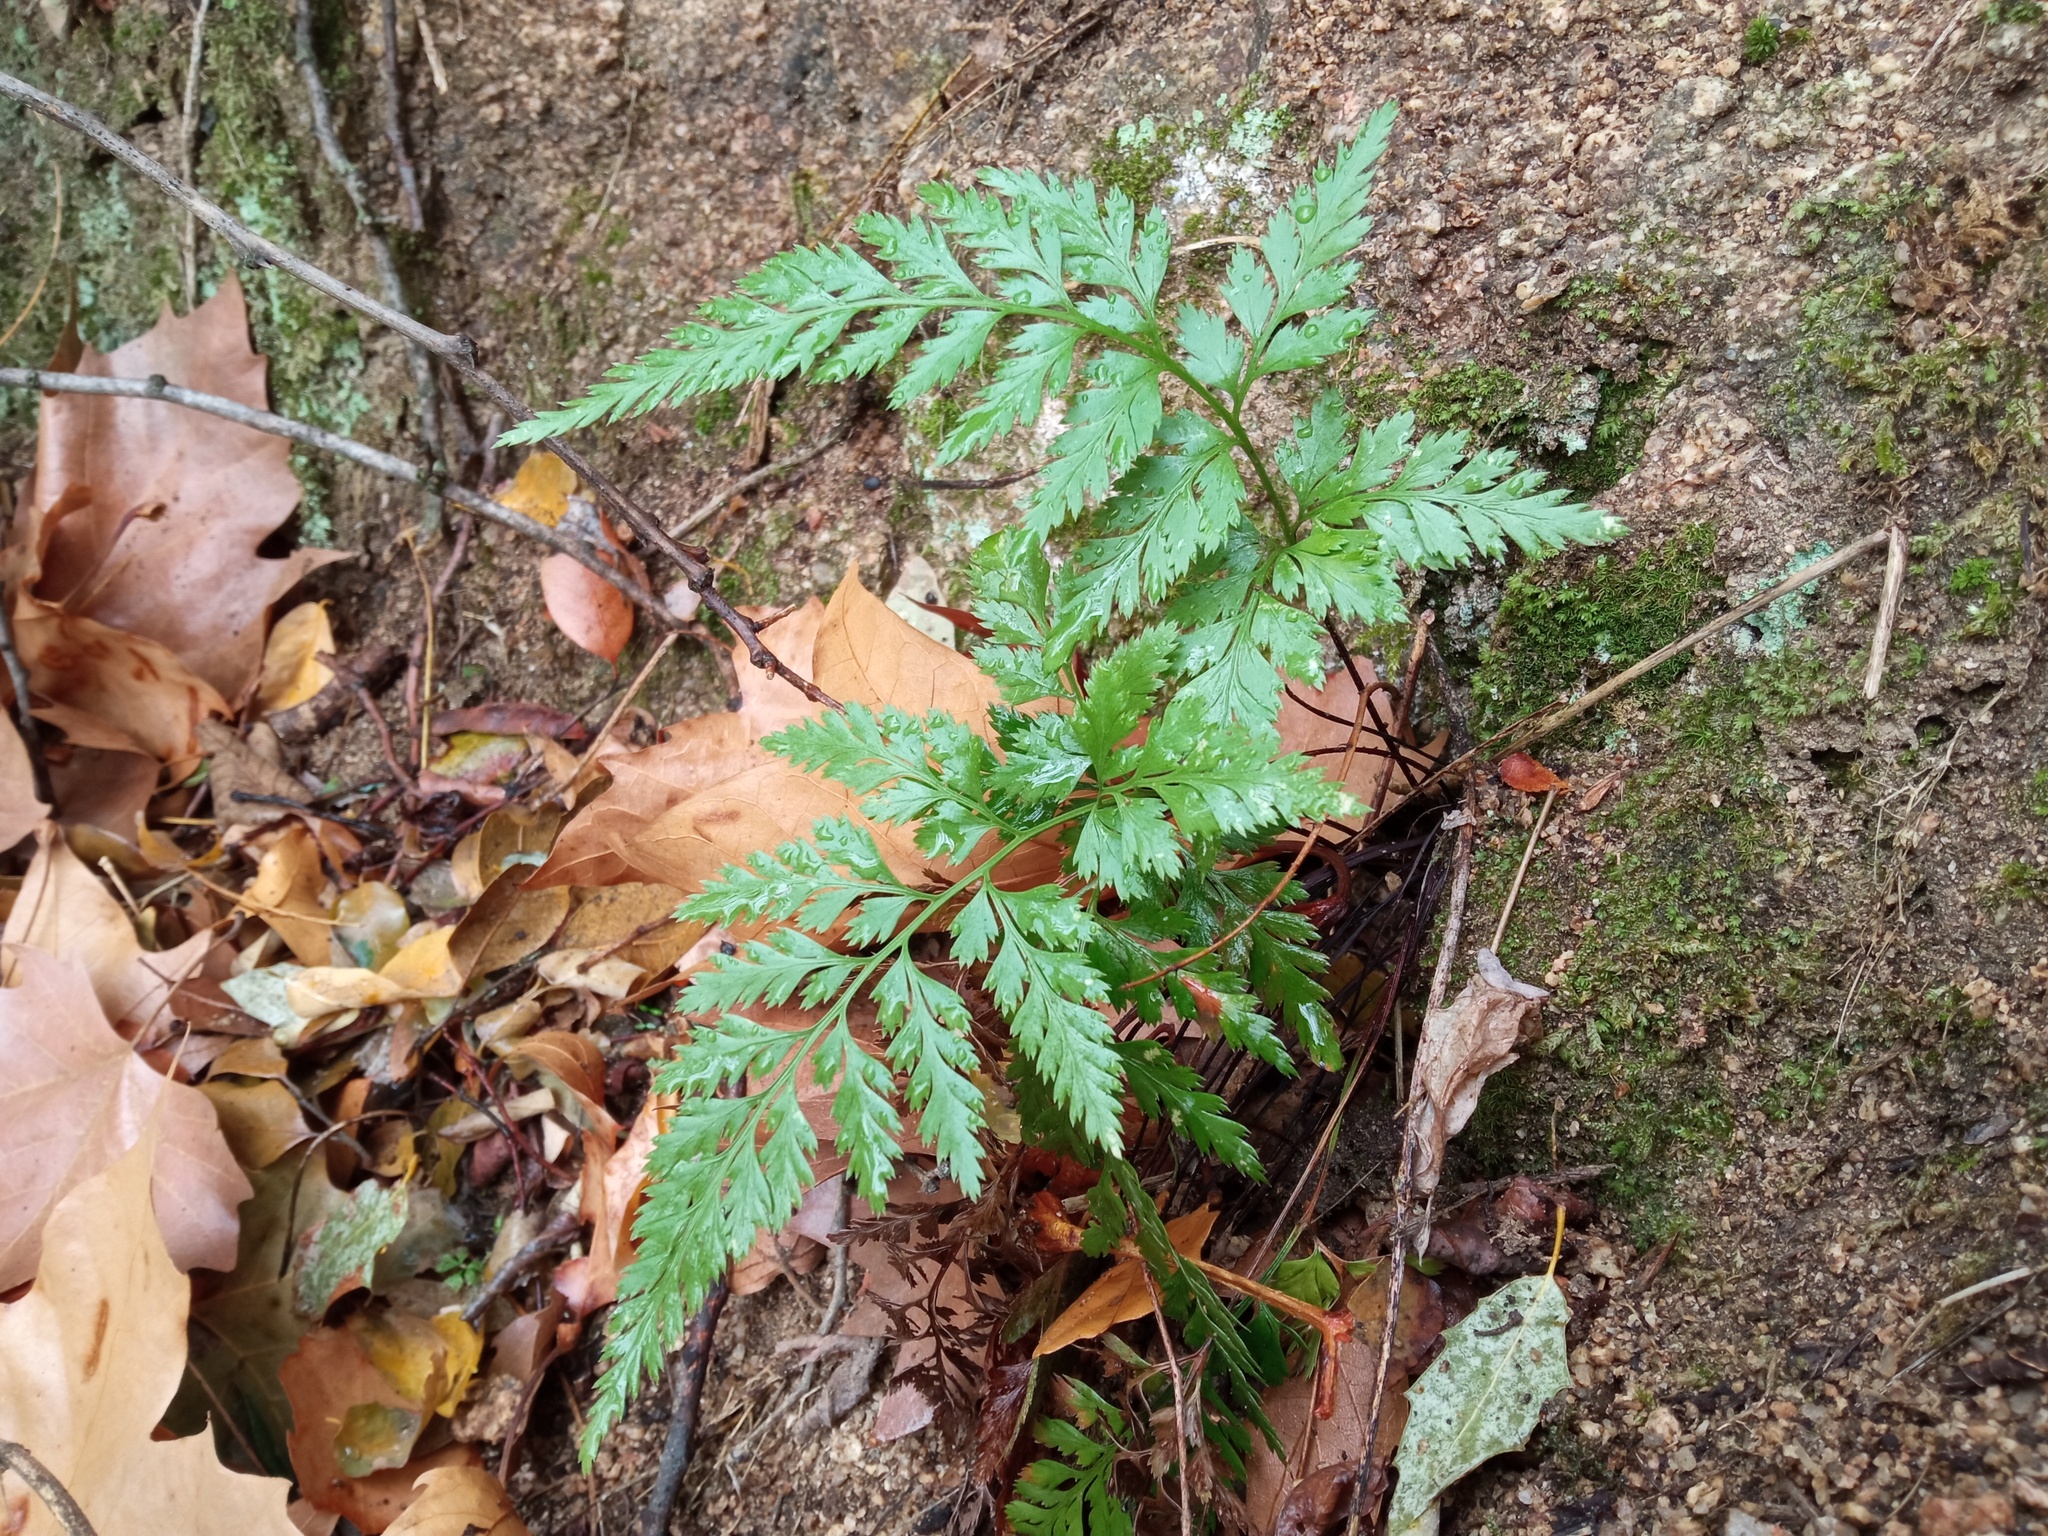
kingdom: Plantae
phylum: Tracheophyta
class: Polypodiopsida
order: Polypodiales
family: Aspleniaceae
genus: Asplenium
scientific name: Asplenium onopteris
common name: Irish spleenwort
